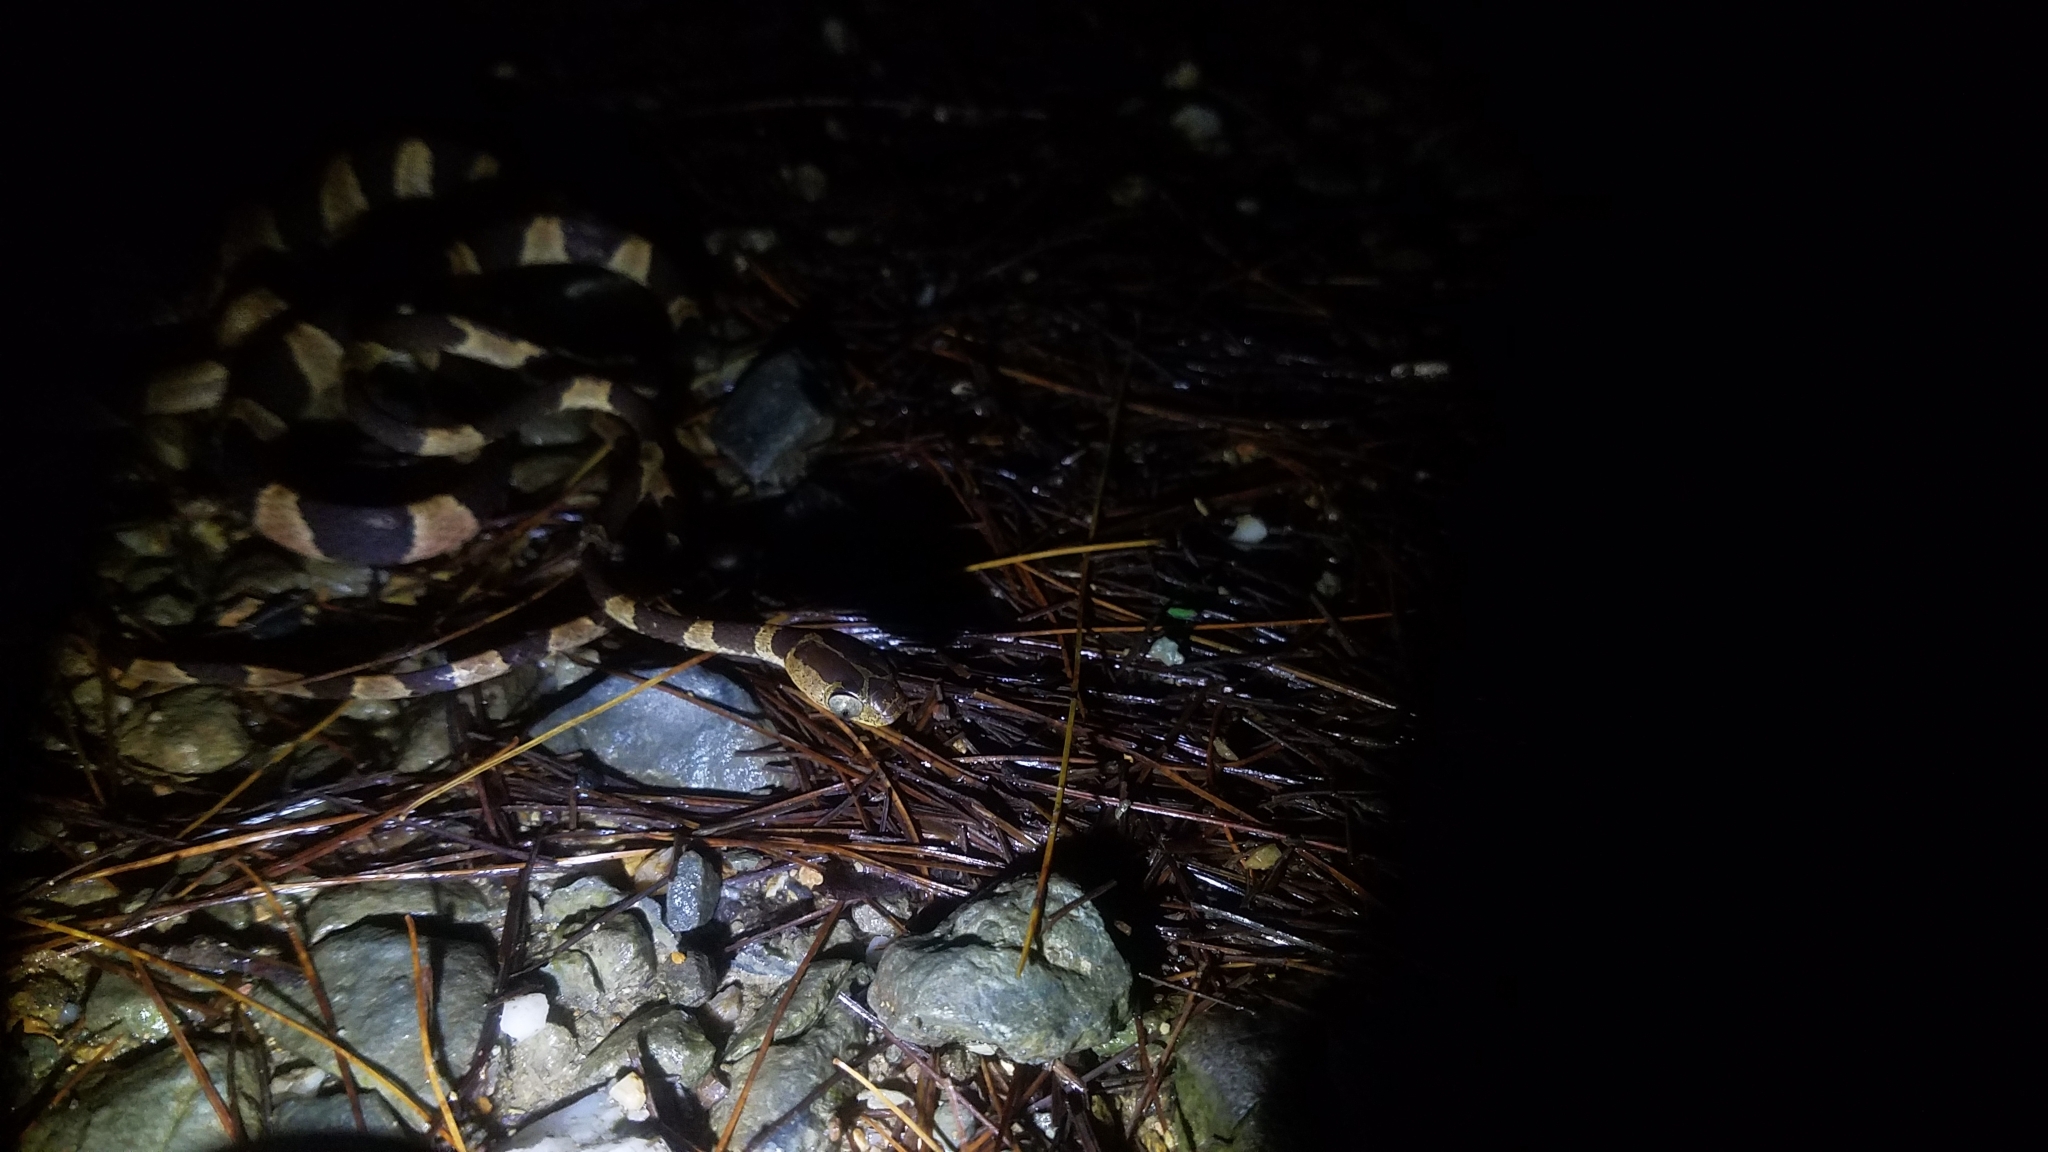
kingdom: Animalia
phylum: Chordata
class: Squamata
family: Colubridae
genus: Imantodes
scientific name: Imantodes cenchoa
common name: Blunthead tree snake
